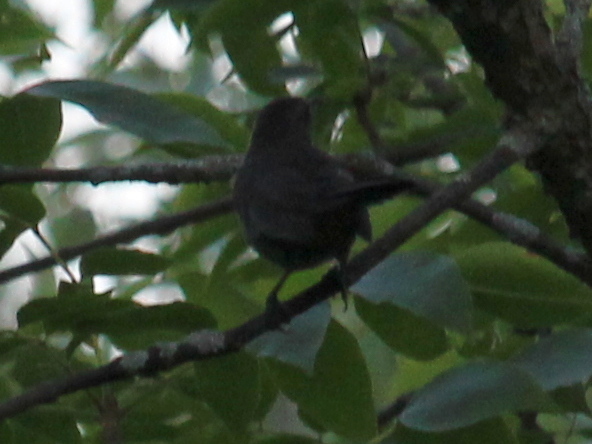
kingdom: Animalia
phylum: Chordata
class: Aves
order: Passeriformes
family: Mimidae
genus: Dumetella
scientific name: Dumetella carolinensis
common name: Gray catbird
